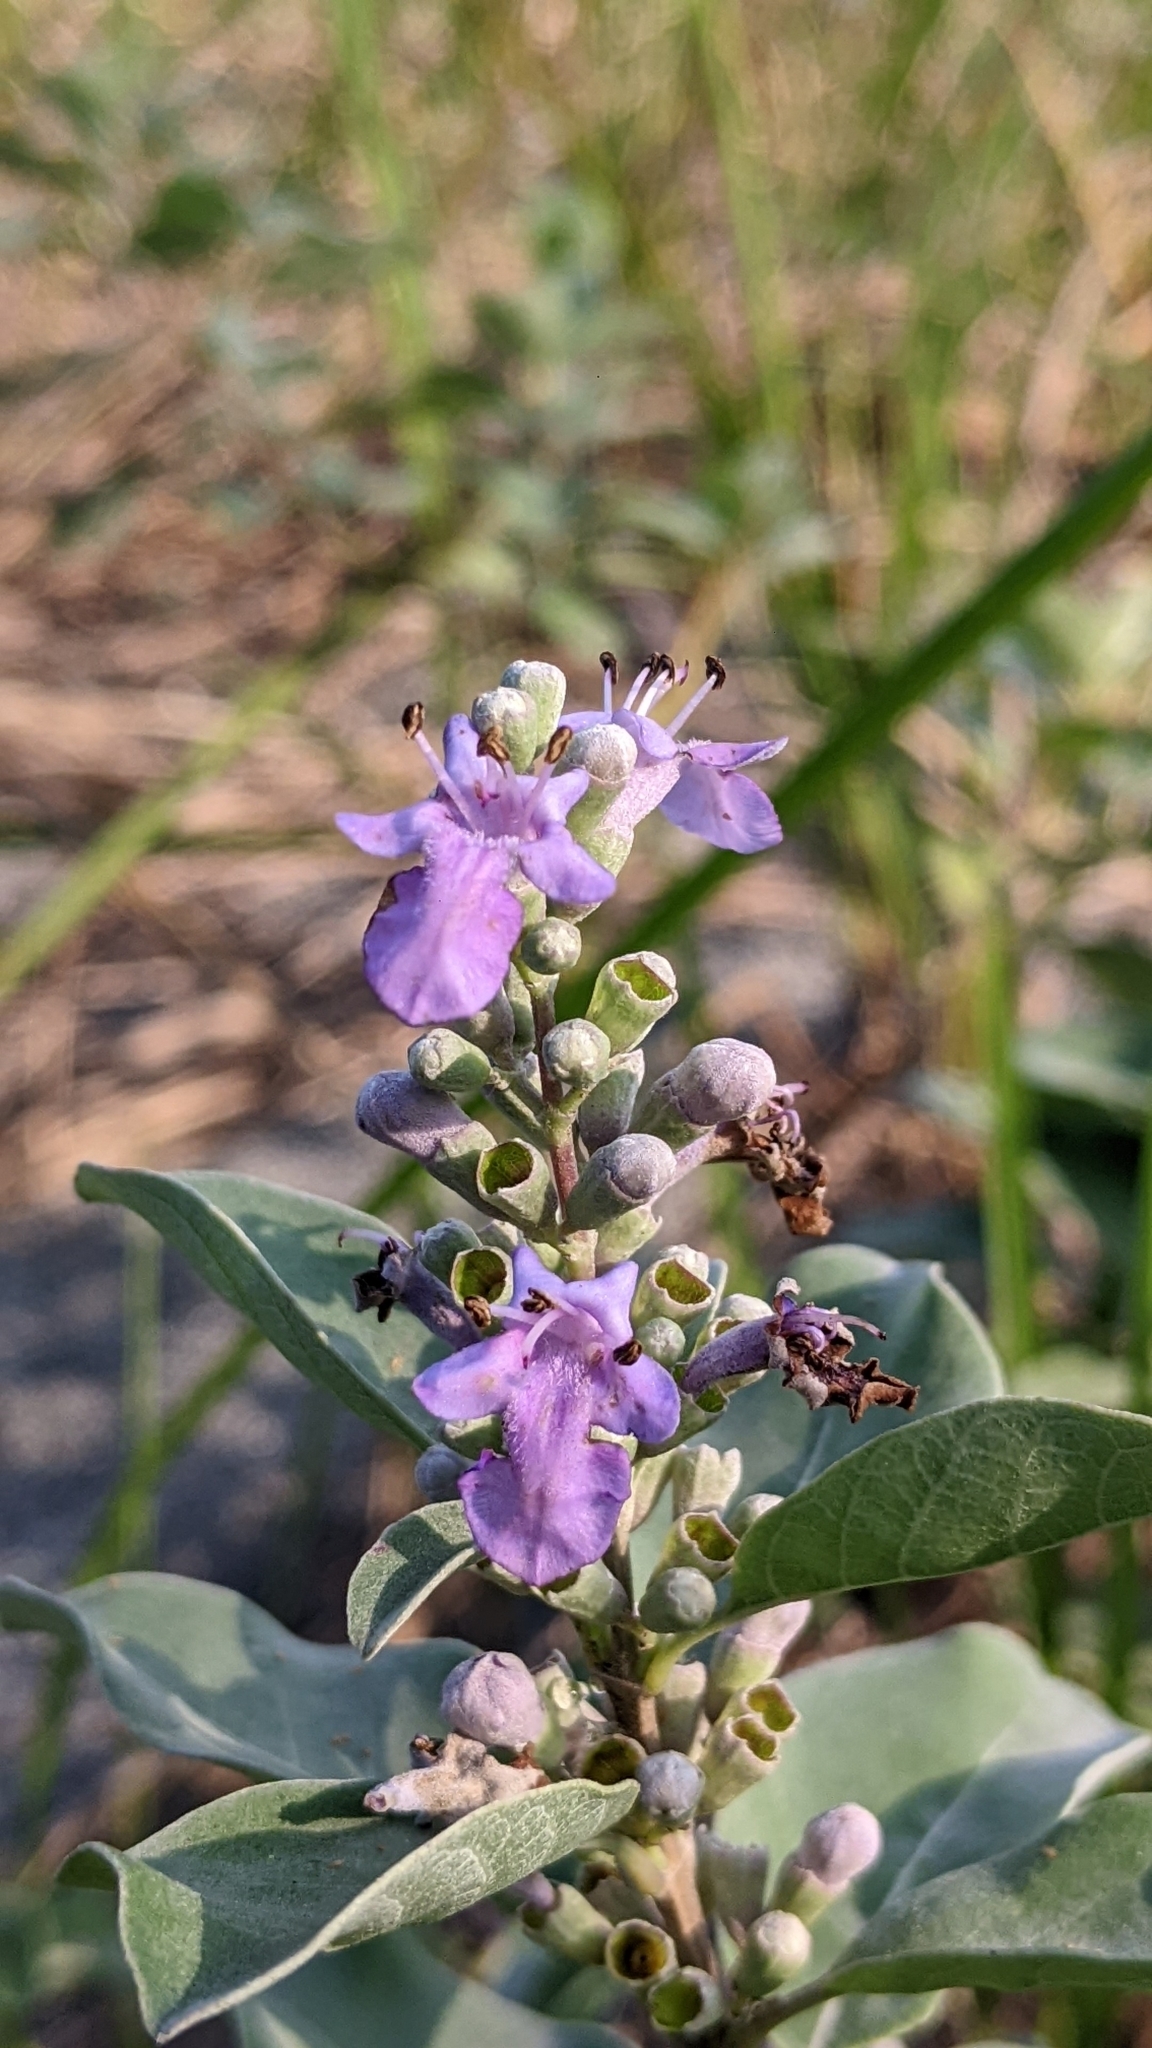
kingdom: Plantae
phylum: Tracheophyta
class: Magnoliopsida
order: Lamiales
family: Lamiaceae
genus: Vitex
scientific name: Vitex rotundifolia
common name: Beach vitex
